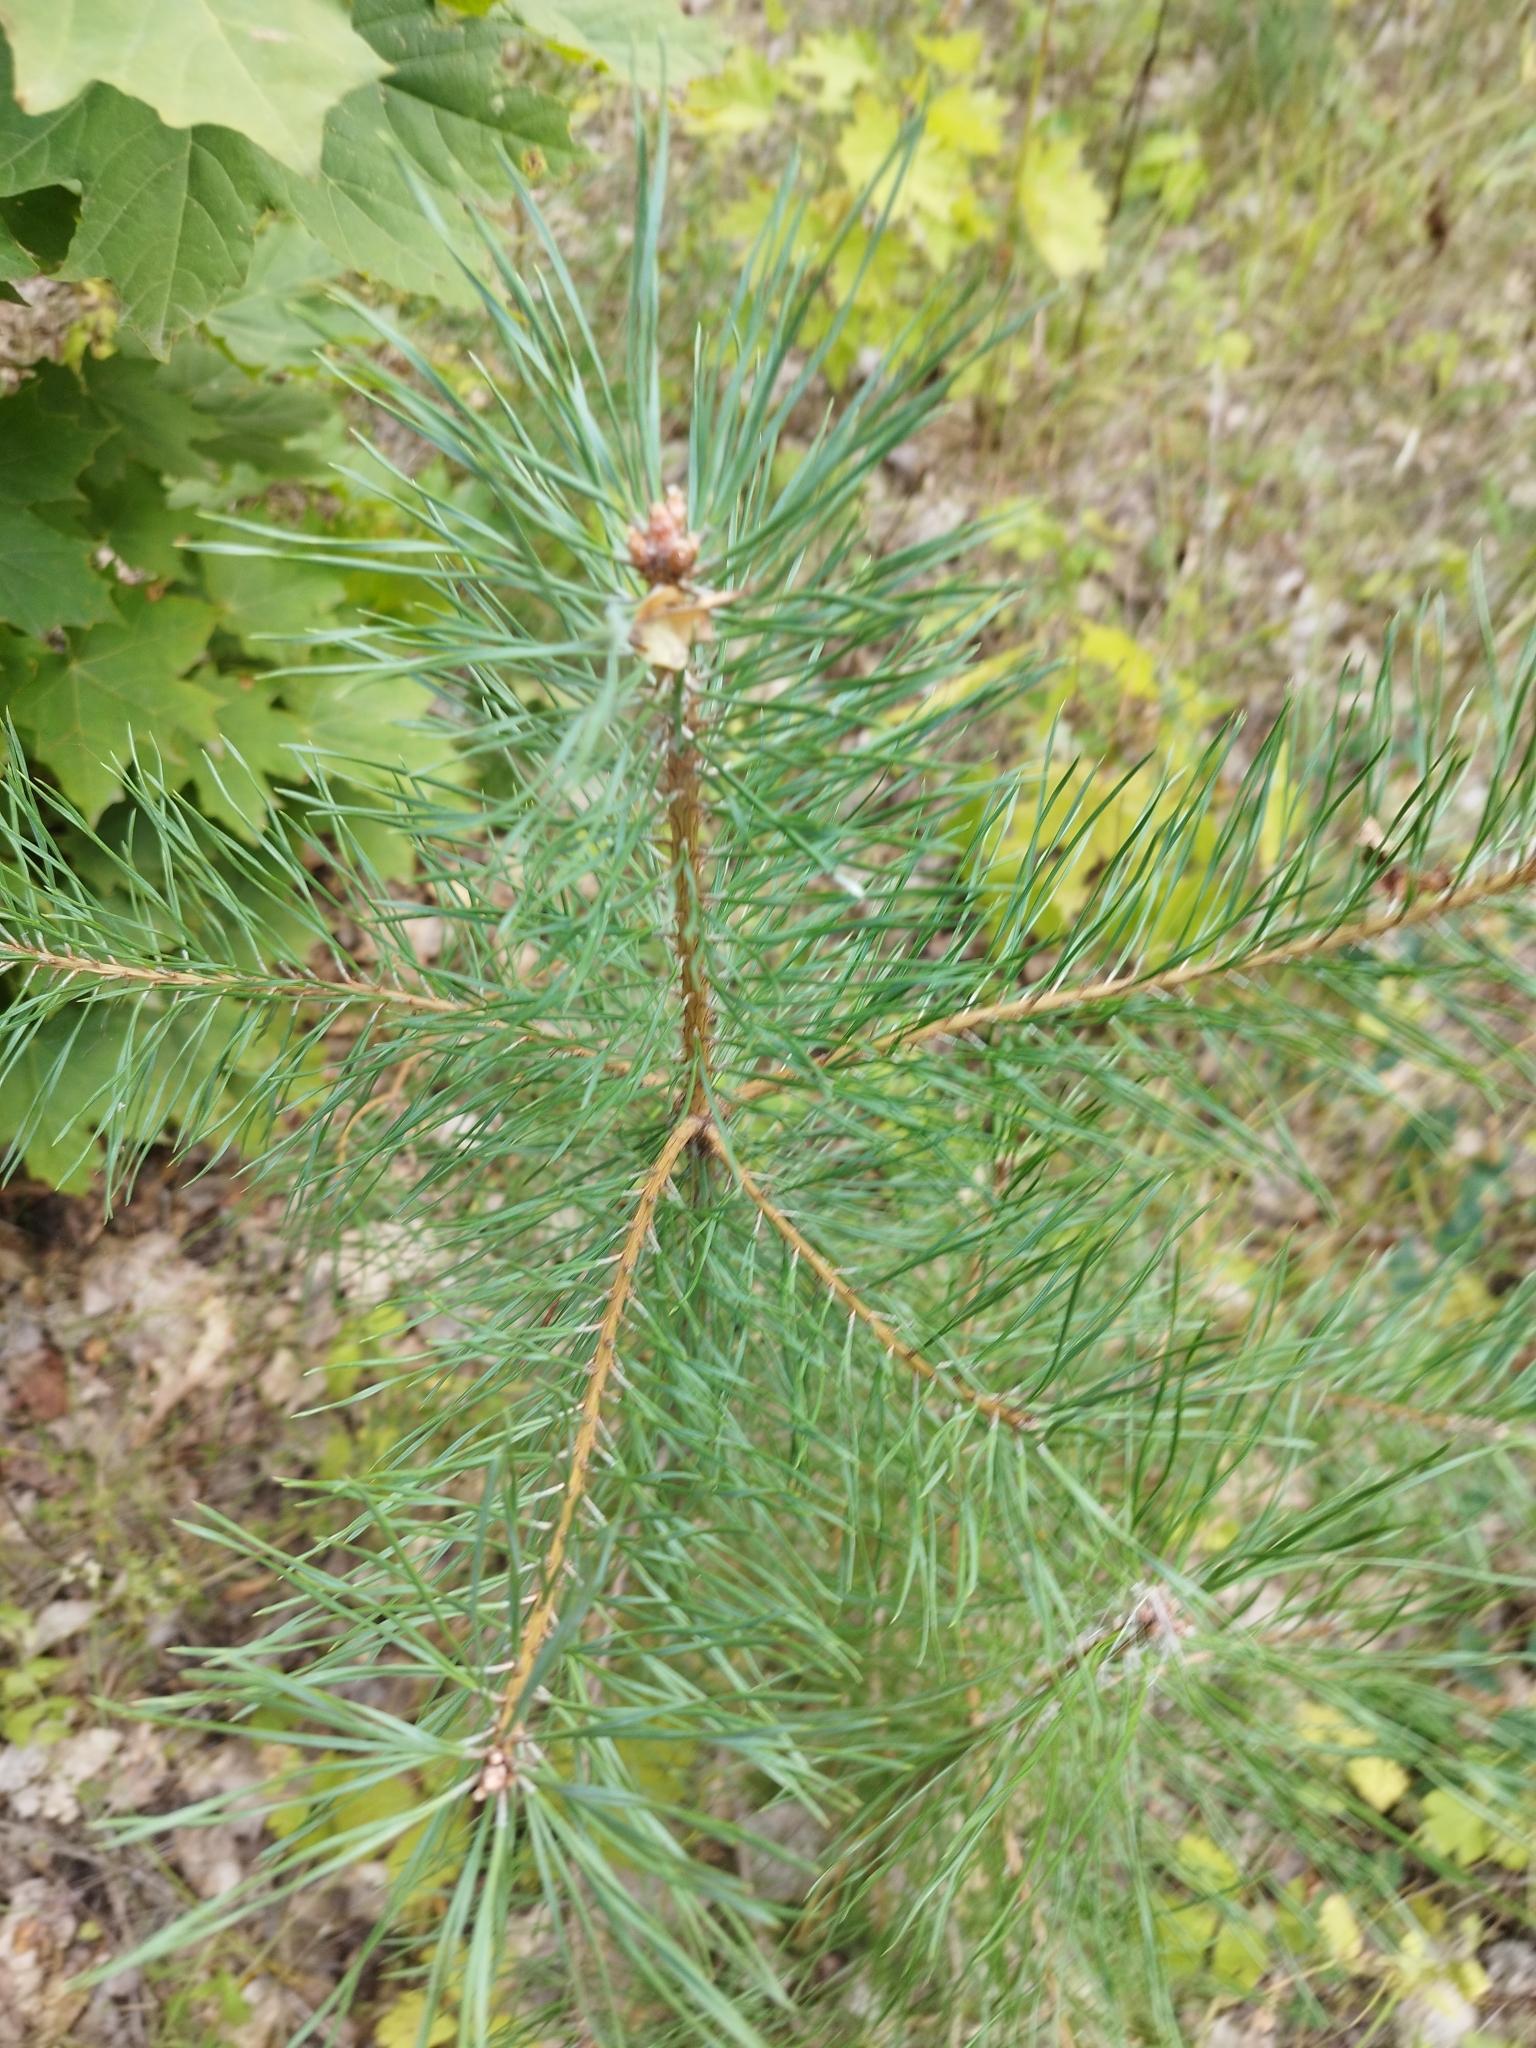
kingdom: Plantae
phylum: Tracheophyta
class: Pinopsida
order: Pinales
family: Pinaceae
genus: Pinus
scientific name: Pinus sylvestris
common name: Scots pine
